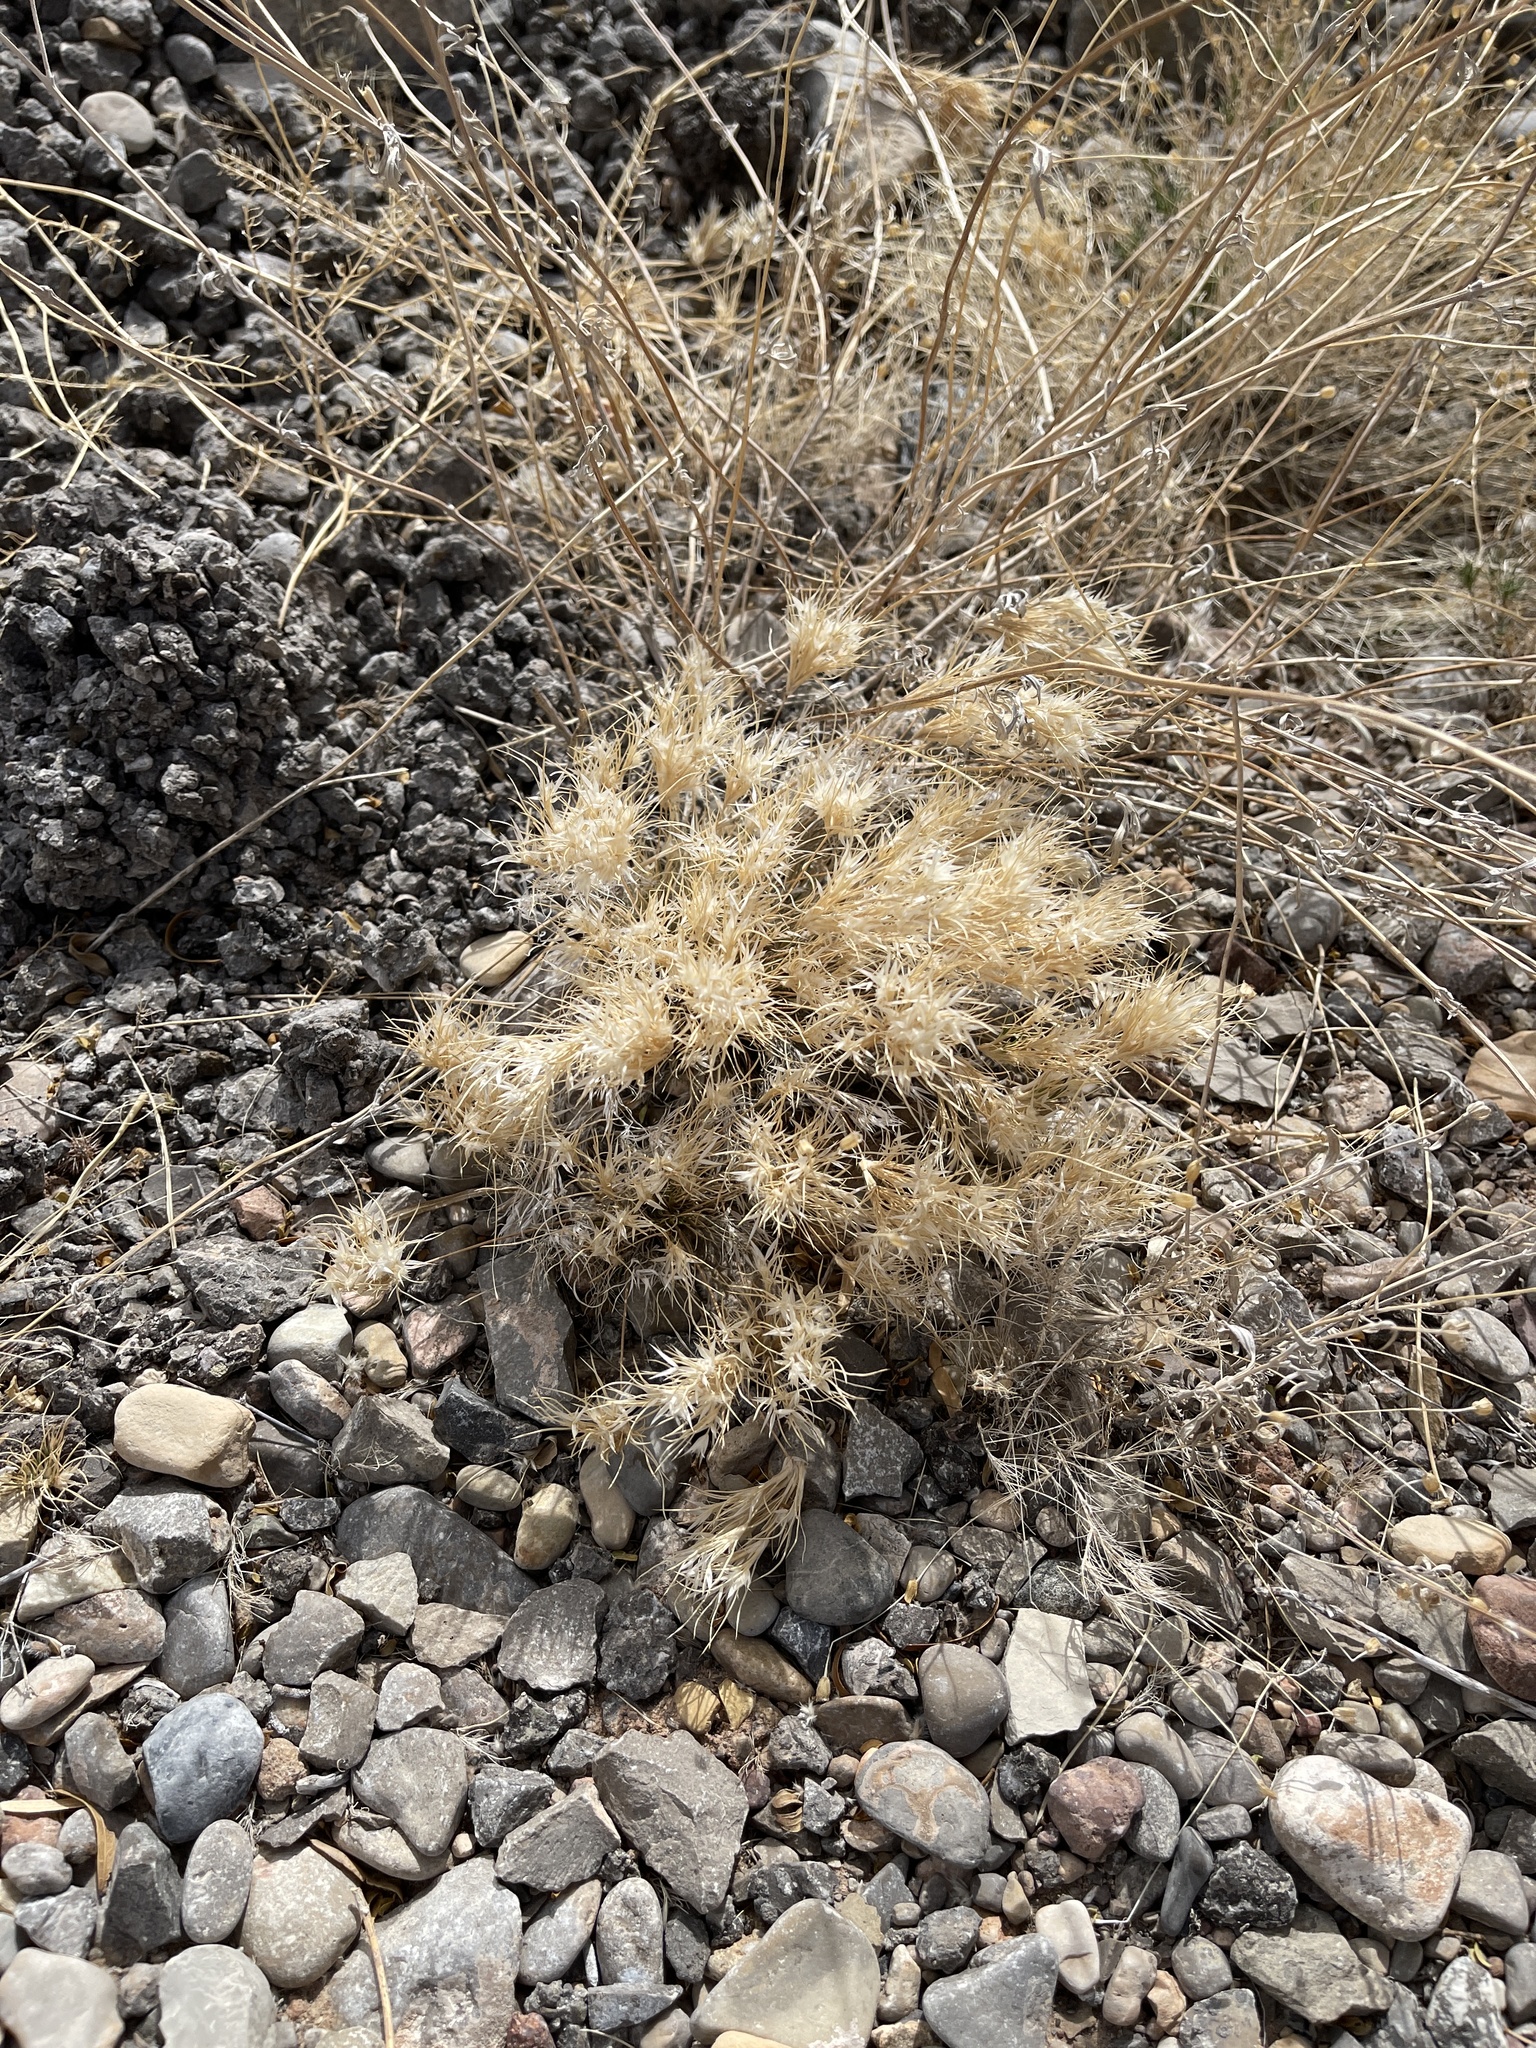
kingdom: Plantae
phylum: Tracheophyta
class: Liliopsida
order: Poales
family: Poaceae
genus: Dasyochloa
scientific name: Dasyochloa pulchella
